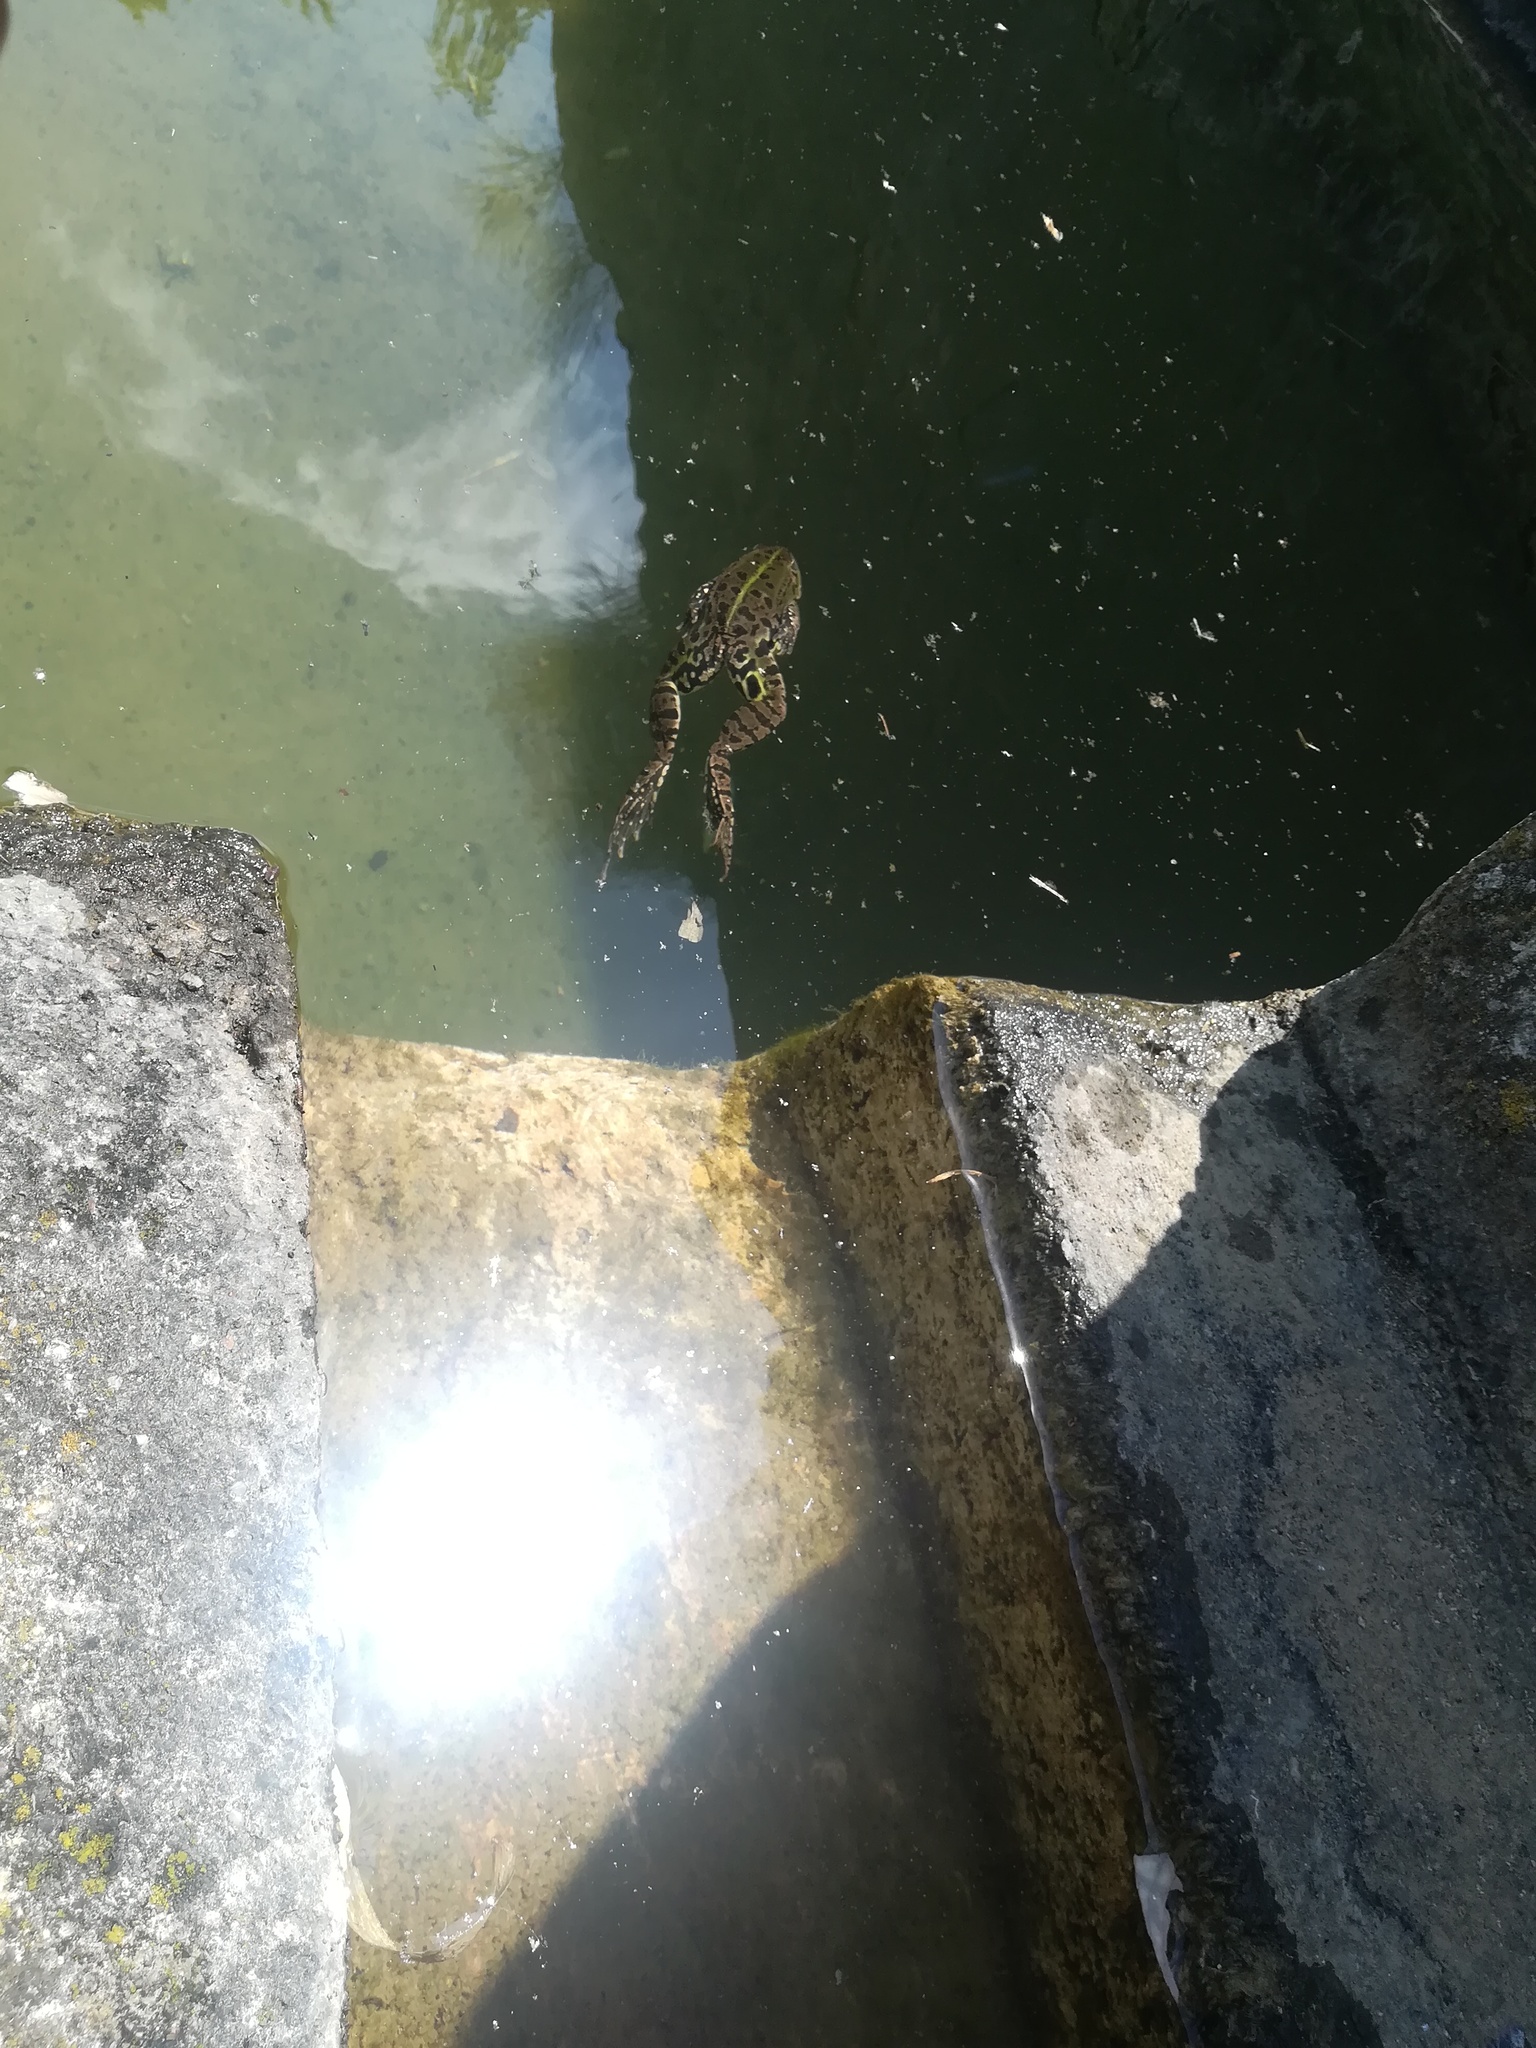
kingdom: Animalia
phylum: Chordata
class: Amphibia
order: Anura
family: Ranidae
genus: Pelophylax
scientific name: Pelophylax
